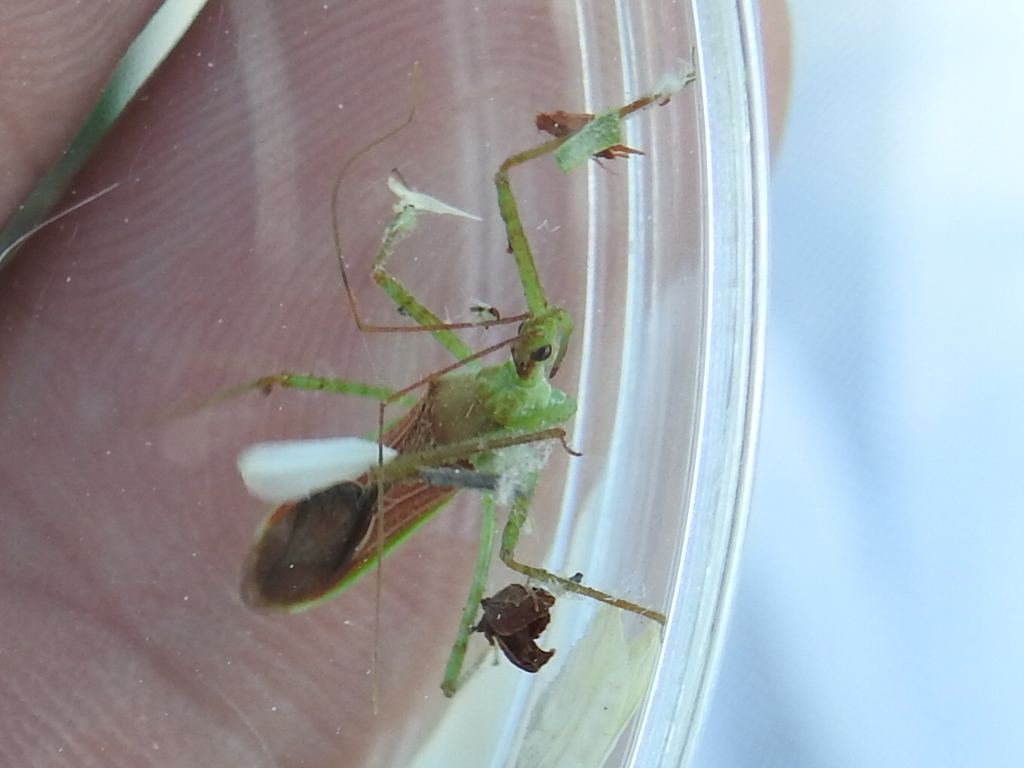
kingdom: Animalia
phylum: Arthropoda
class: Insecta
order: Hemiptera
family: Reduviidae
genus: Zelus
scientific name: Zelus renardii
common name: Assassin bug
